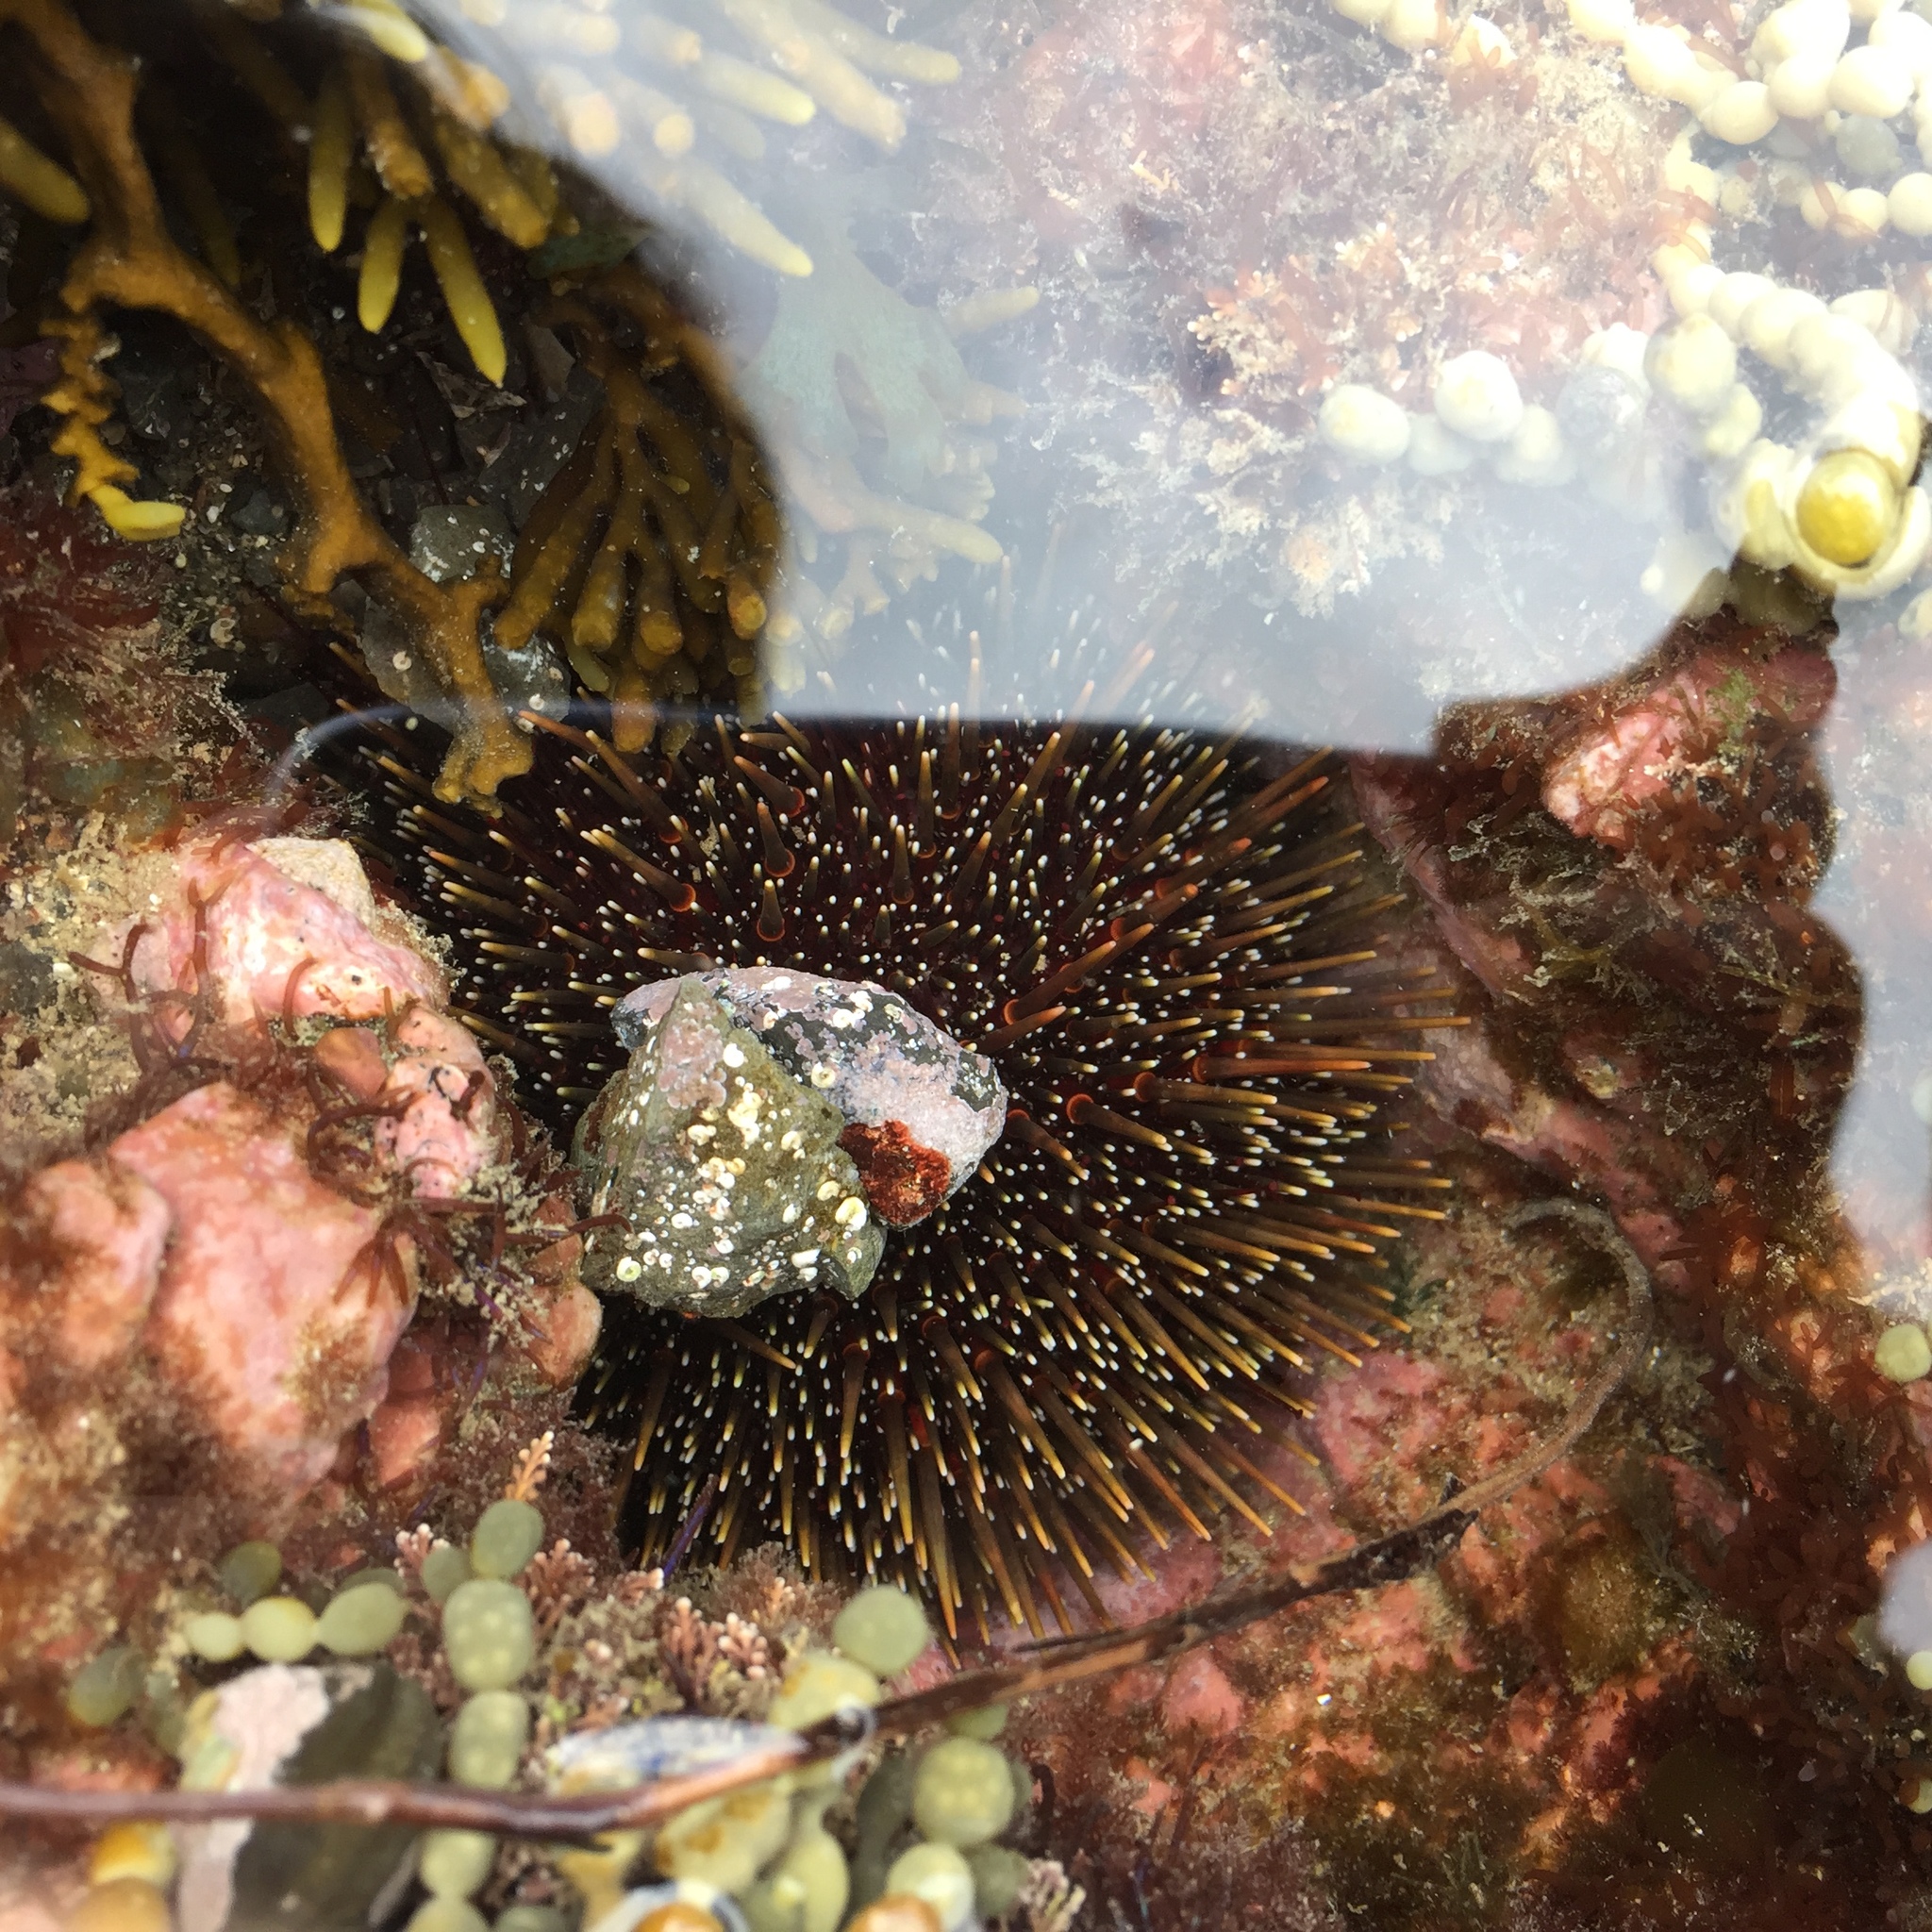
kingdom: Animalia
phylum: Echinodermata
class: Echinoidea
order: Camarodonta
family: Echinometridae
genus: Evechinus
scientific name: Evechinus chloroticus
